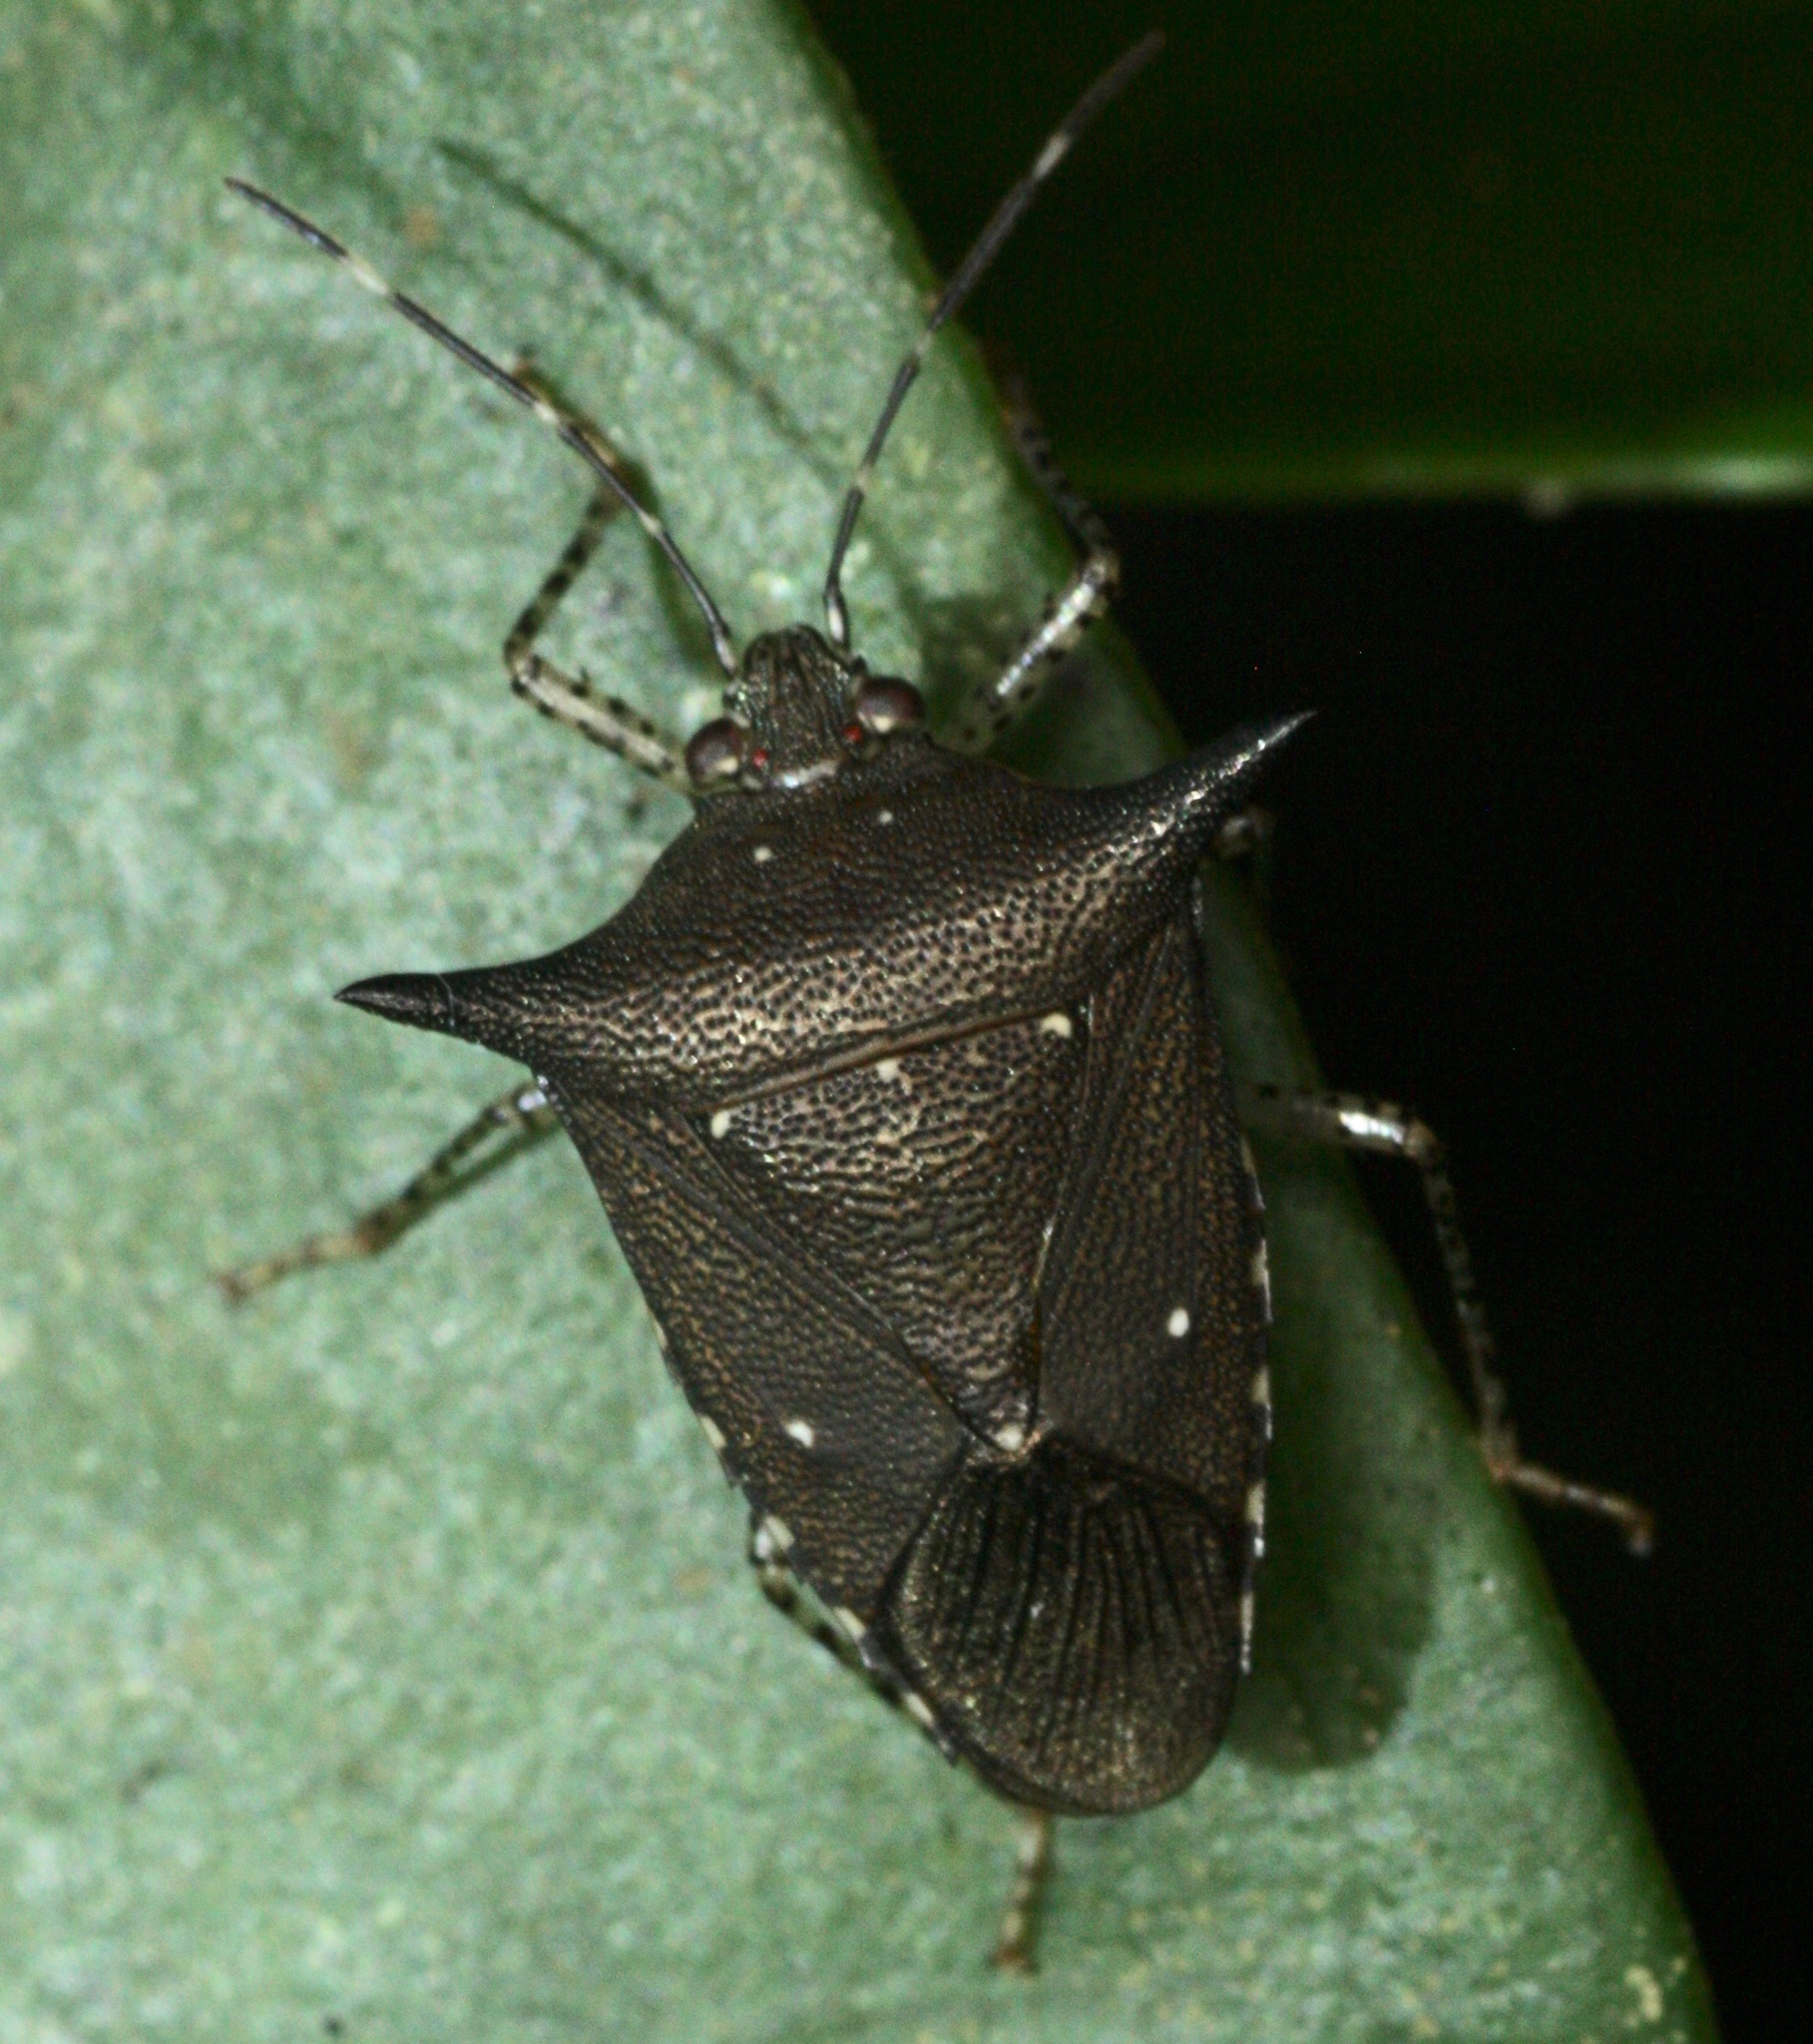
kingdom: Animalia
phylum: Arthropoda
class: Insecta
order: Hemiptera
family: Pentatomidae
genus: Sibaria
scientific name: Sibaria englemani
